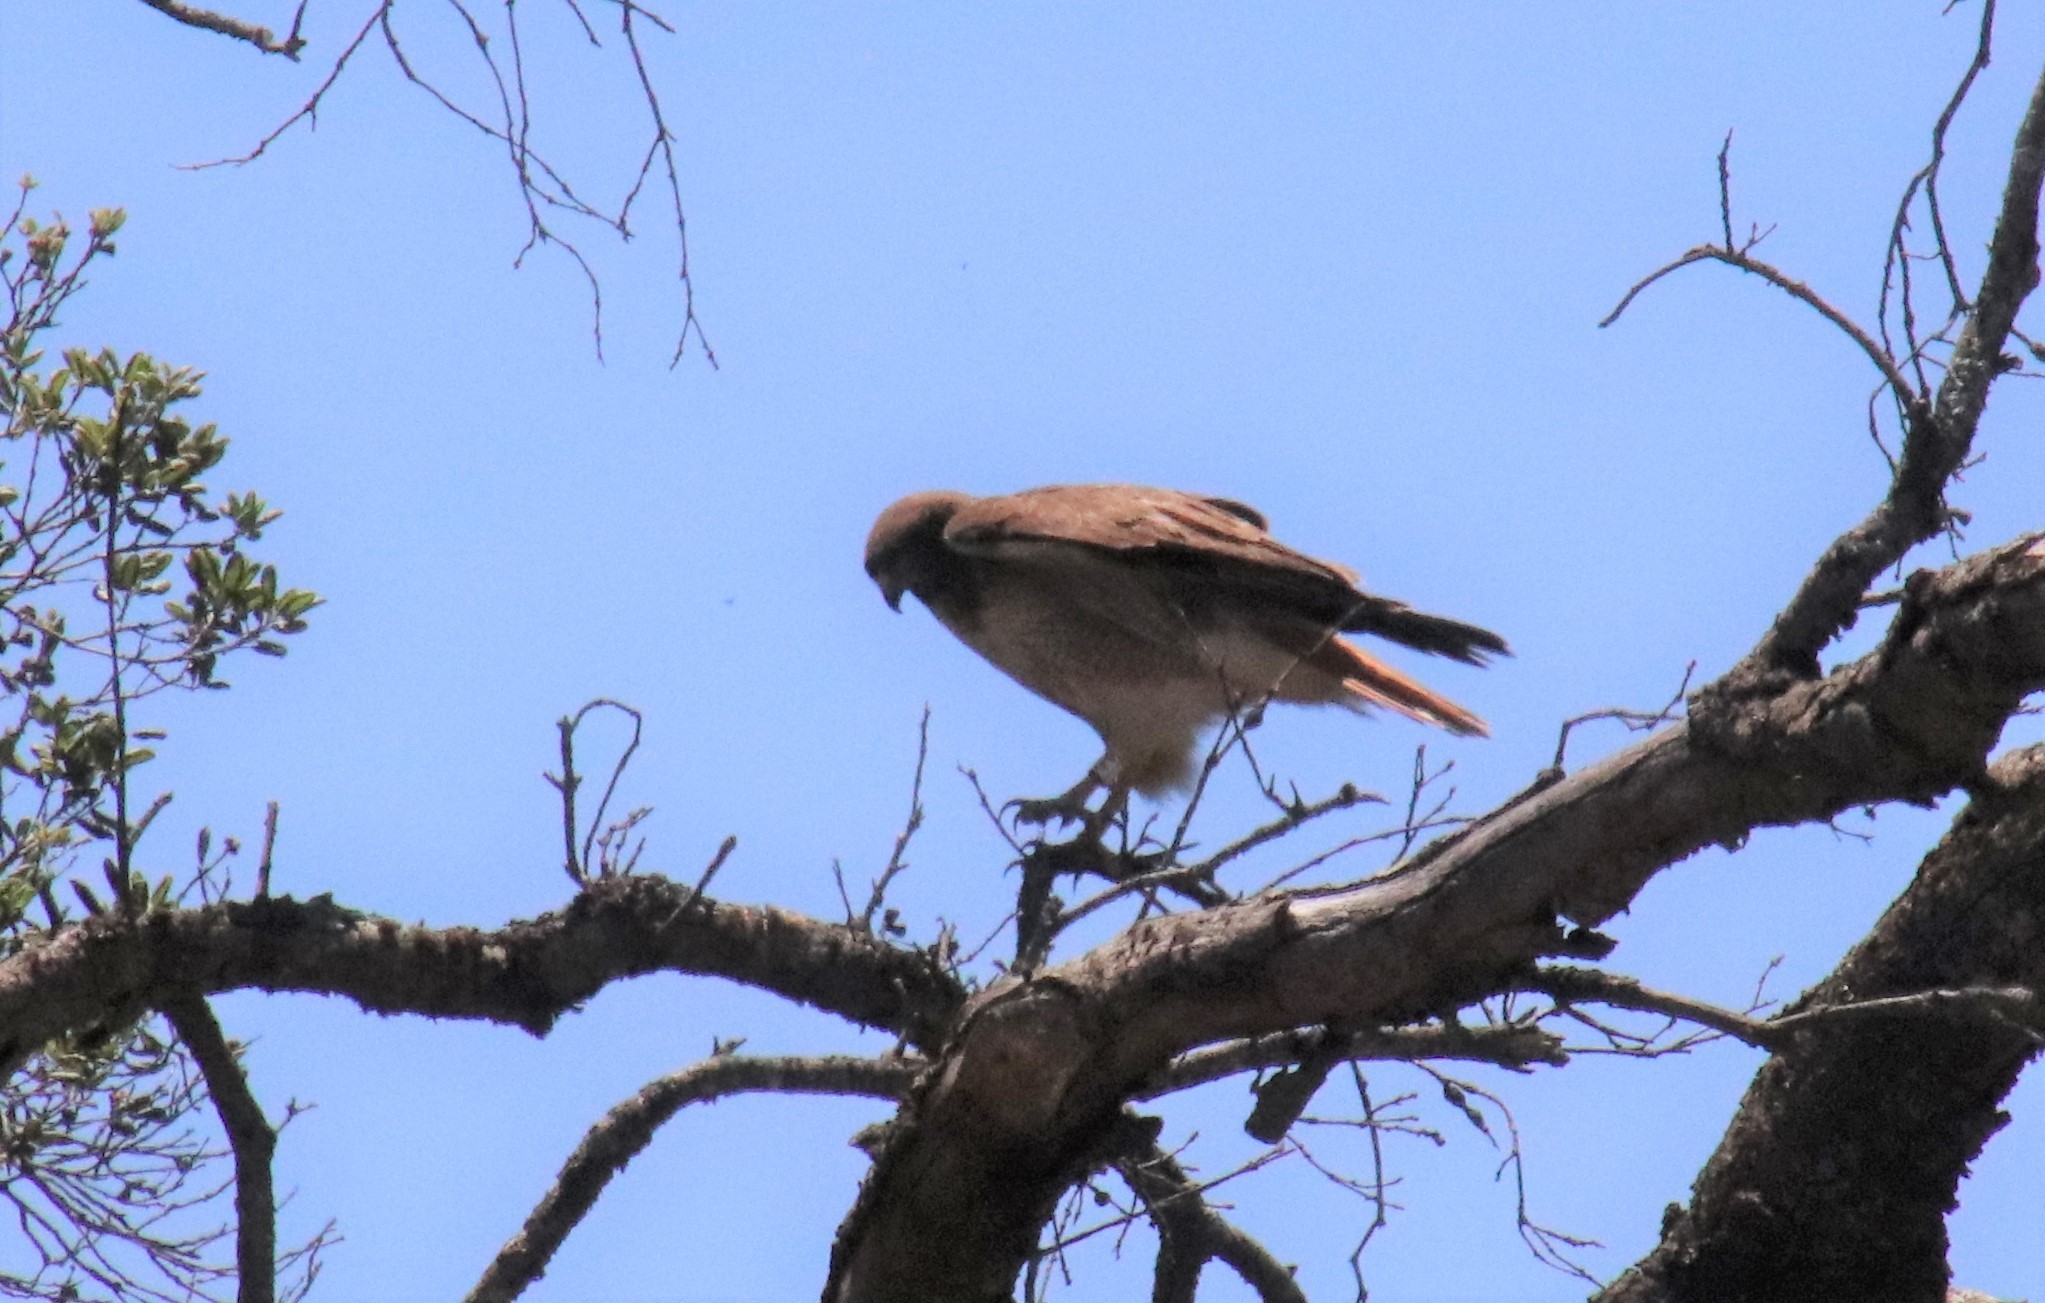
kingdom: Animalia
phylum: Chordata
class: Aves
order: Accipitriformes
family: Accipitridae
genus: Buteo
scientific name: Buteo jamaicensis
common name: Red-tailed hawk
